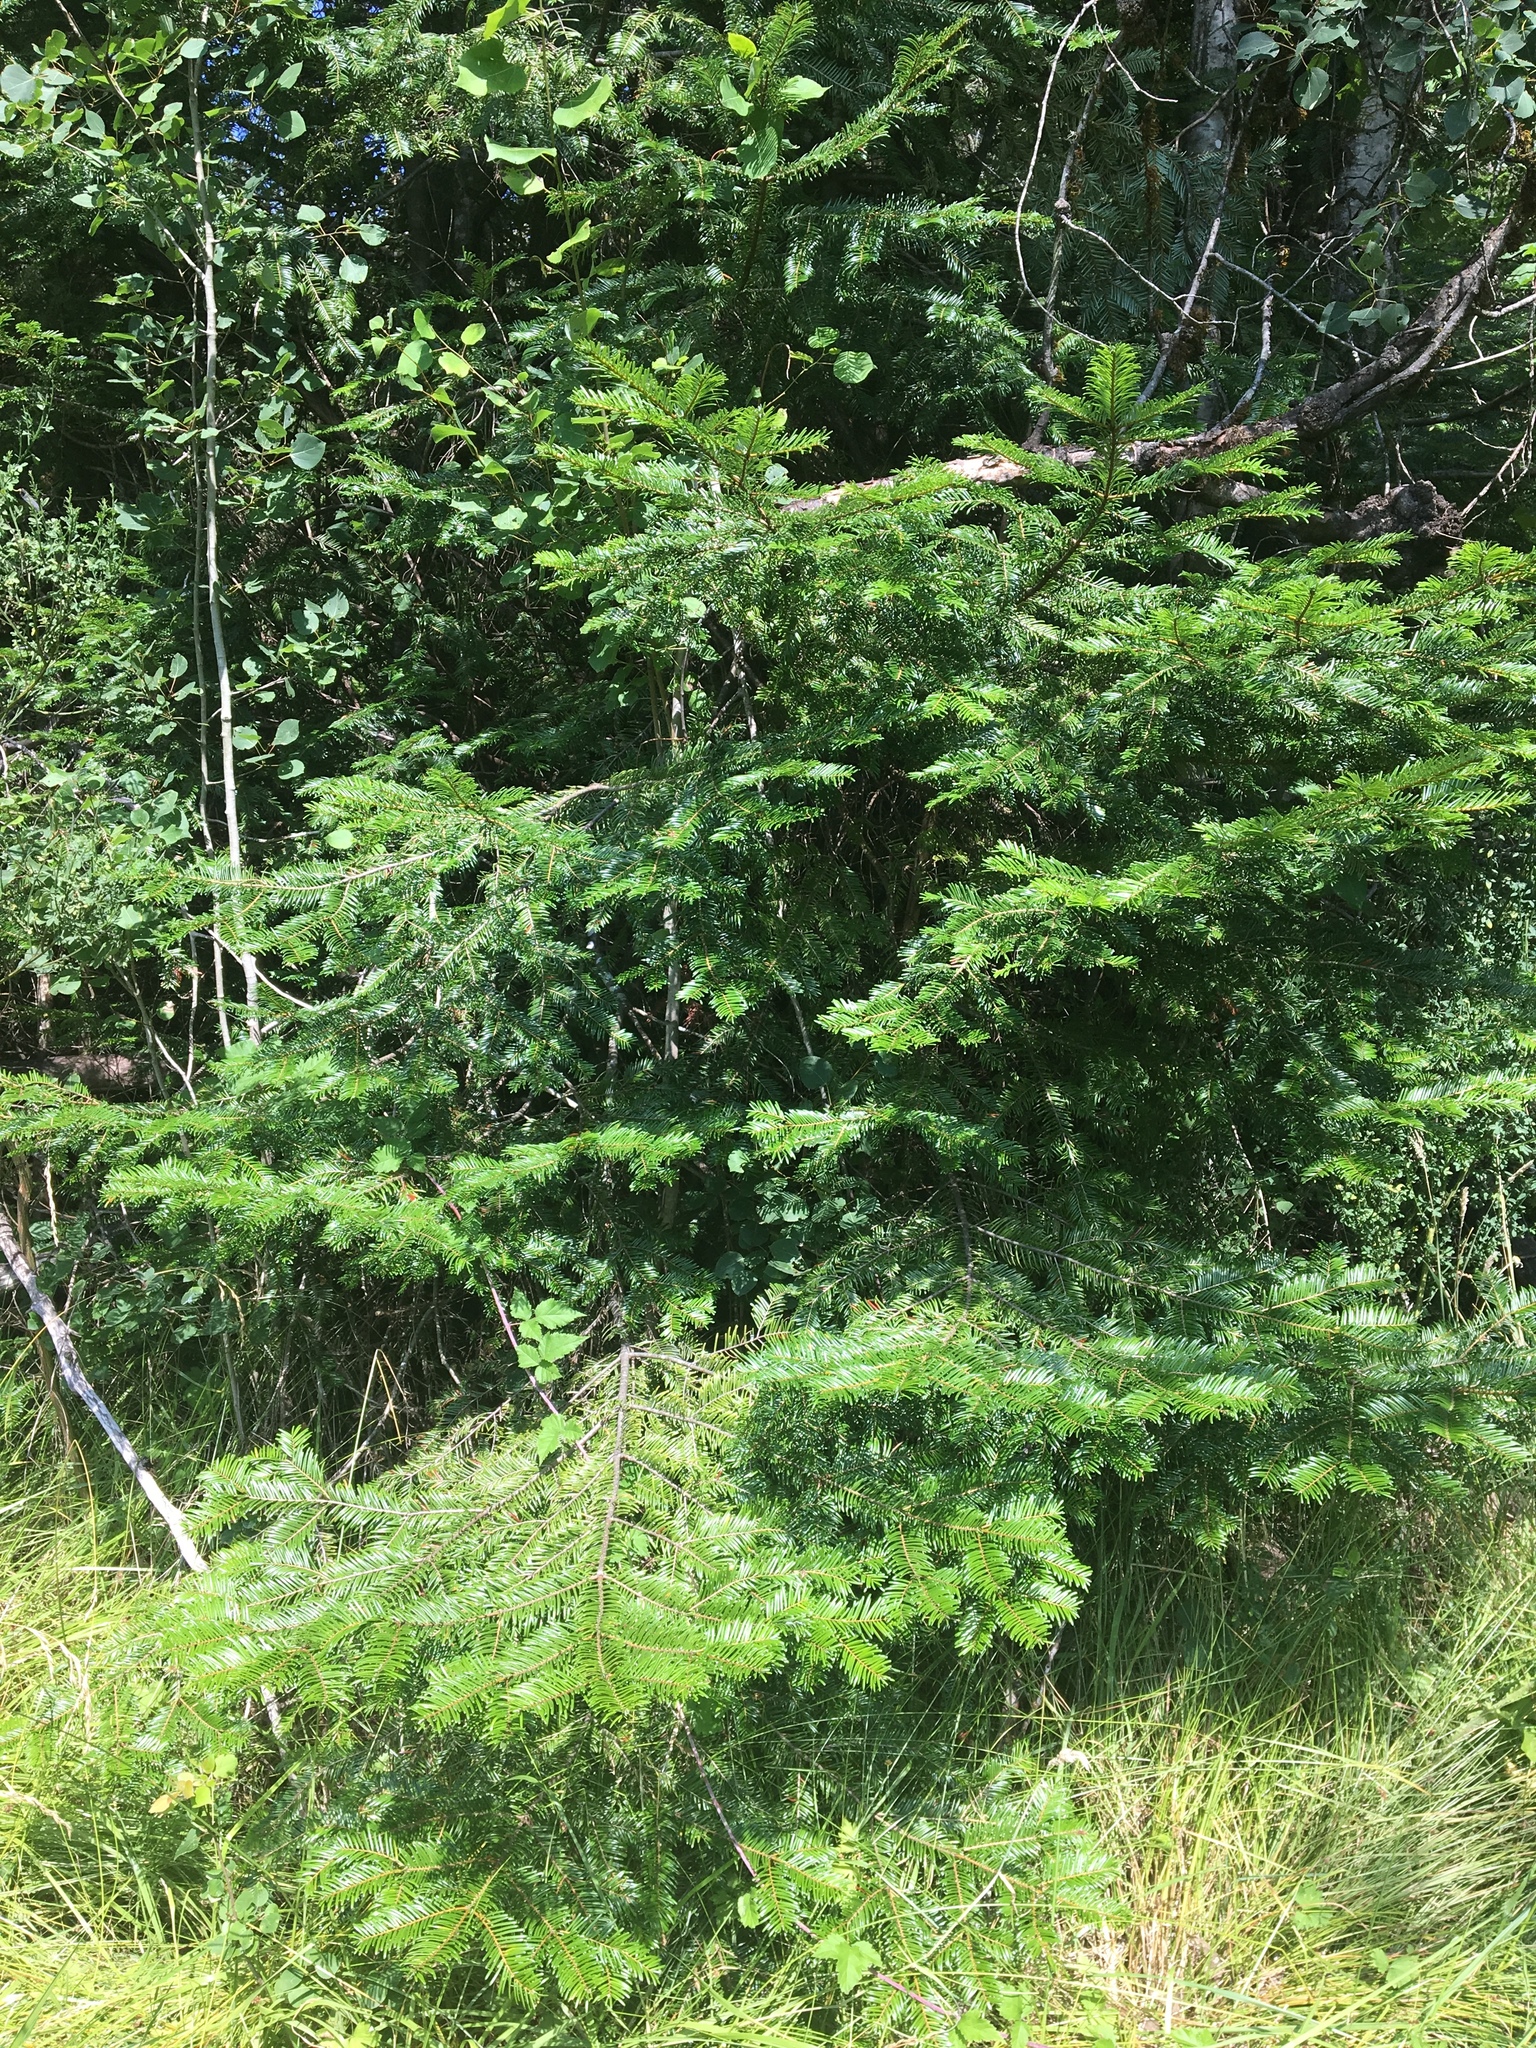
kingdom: Plantae
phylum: Tracheophyta
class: Pinopsida
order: Pinales
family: Pinaceae
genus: Abies
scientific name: Abies grandis
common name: Giant fir
